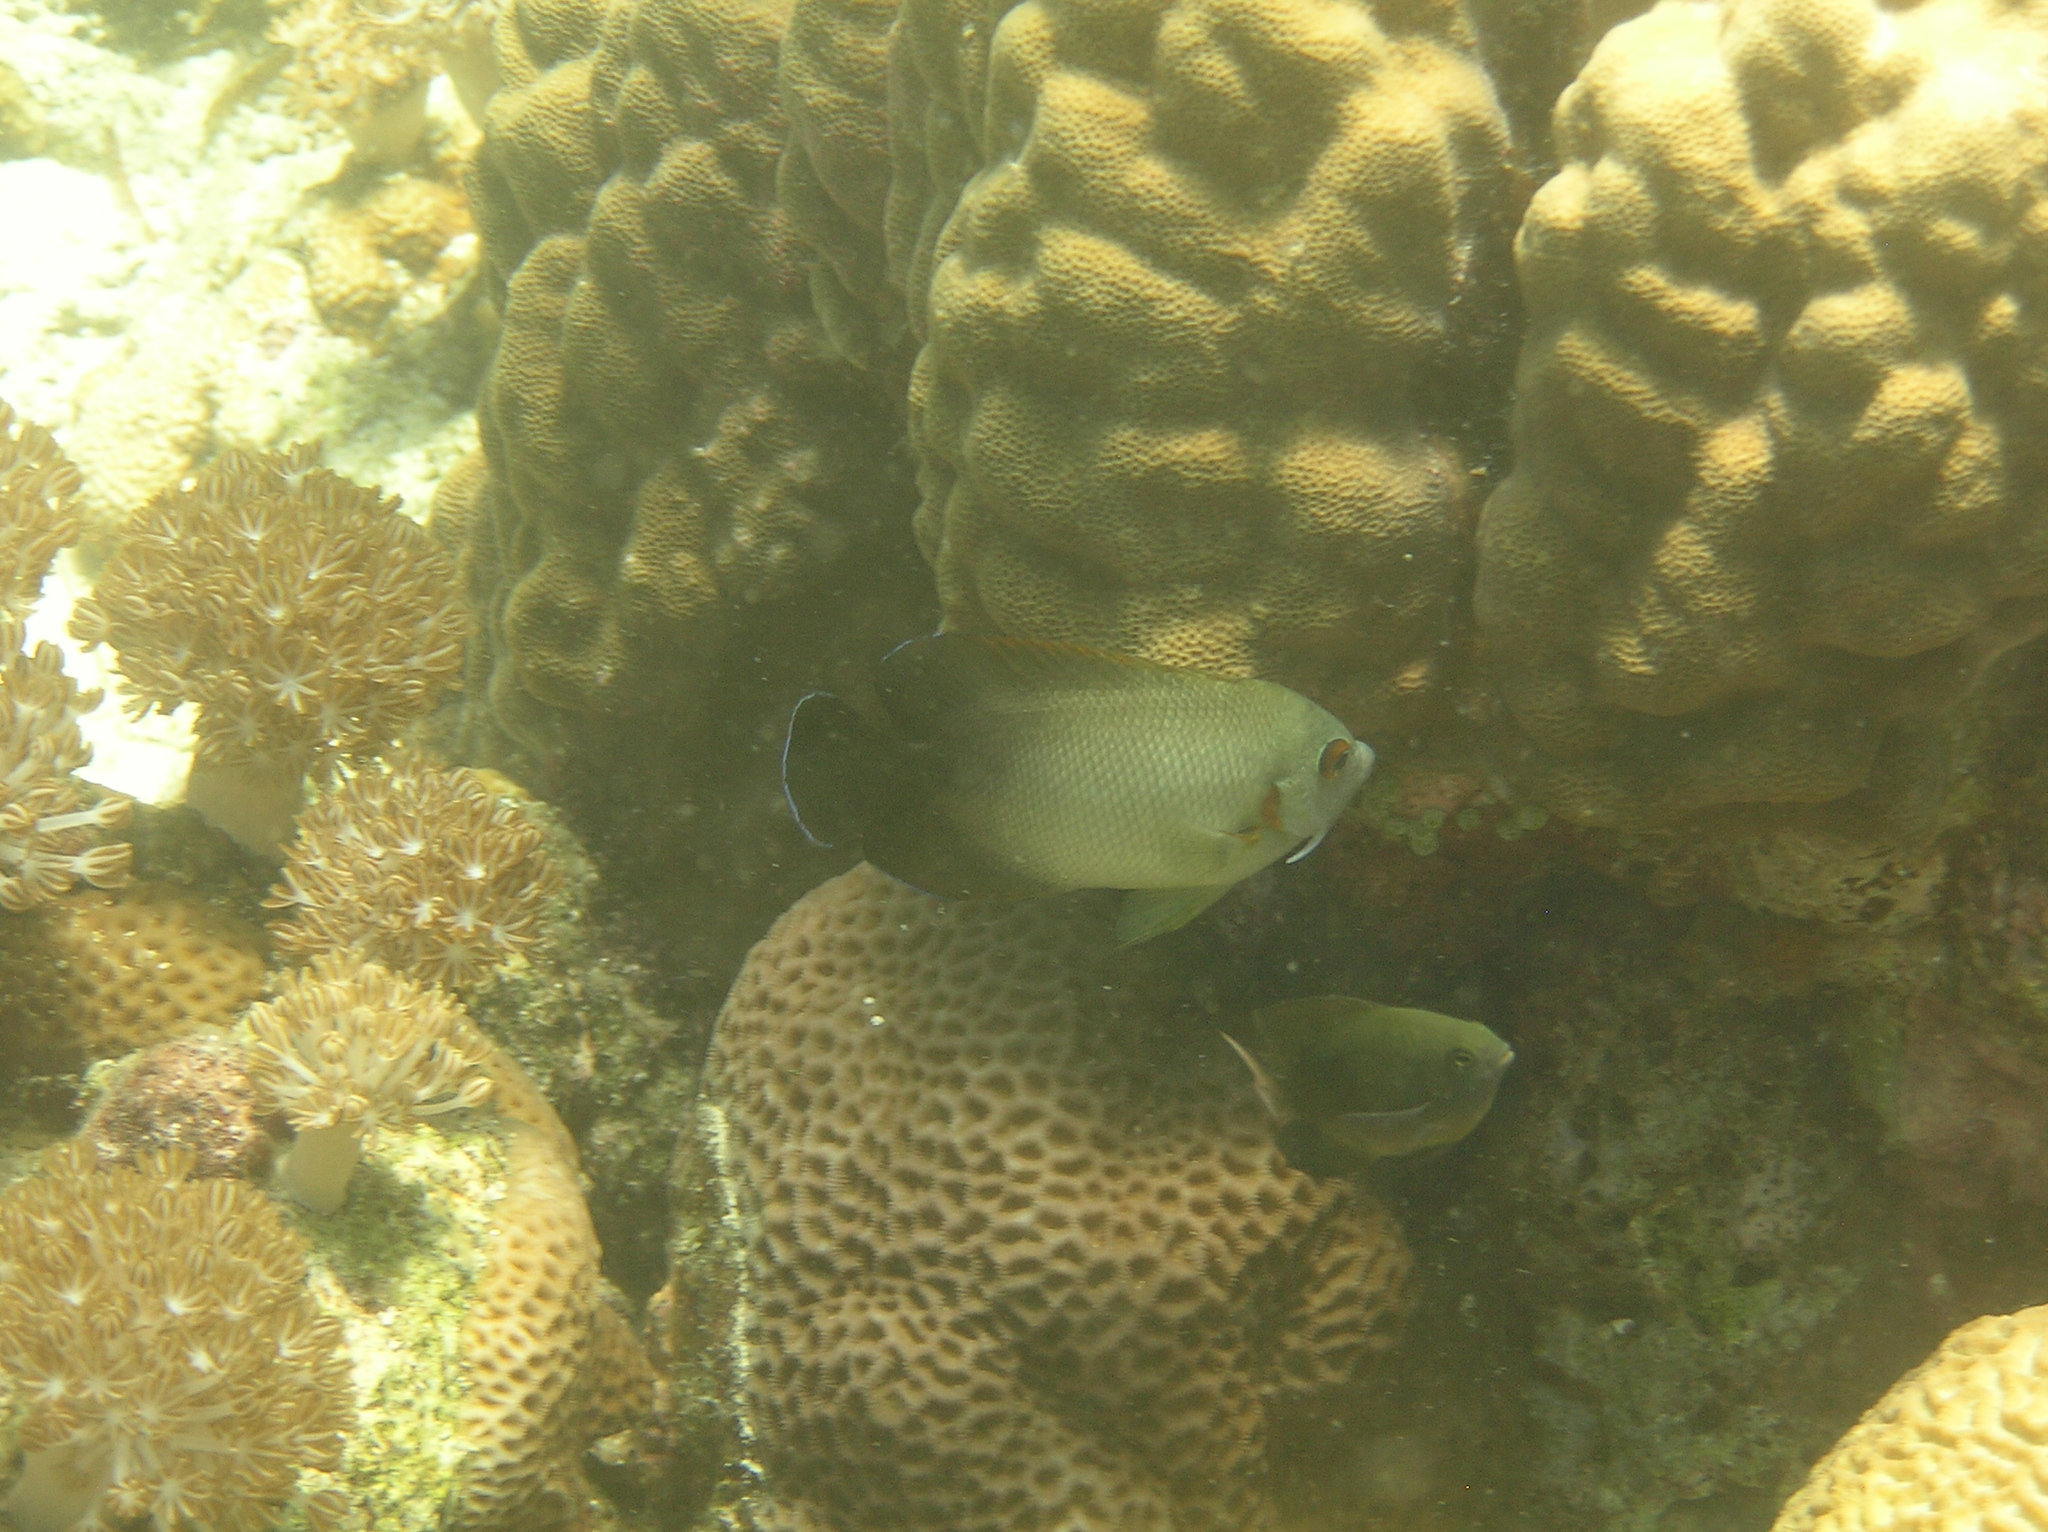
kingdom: Animalia
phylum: Chordata
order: Perciformes
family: Pomacanthidae
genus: Centropyge
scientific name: Centropyge vrolikii
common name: Pearlscale angelfish
